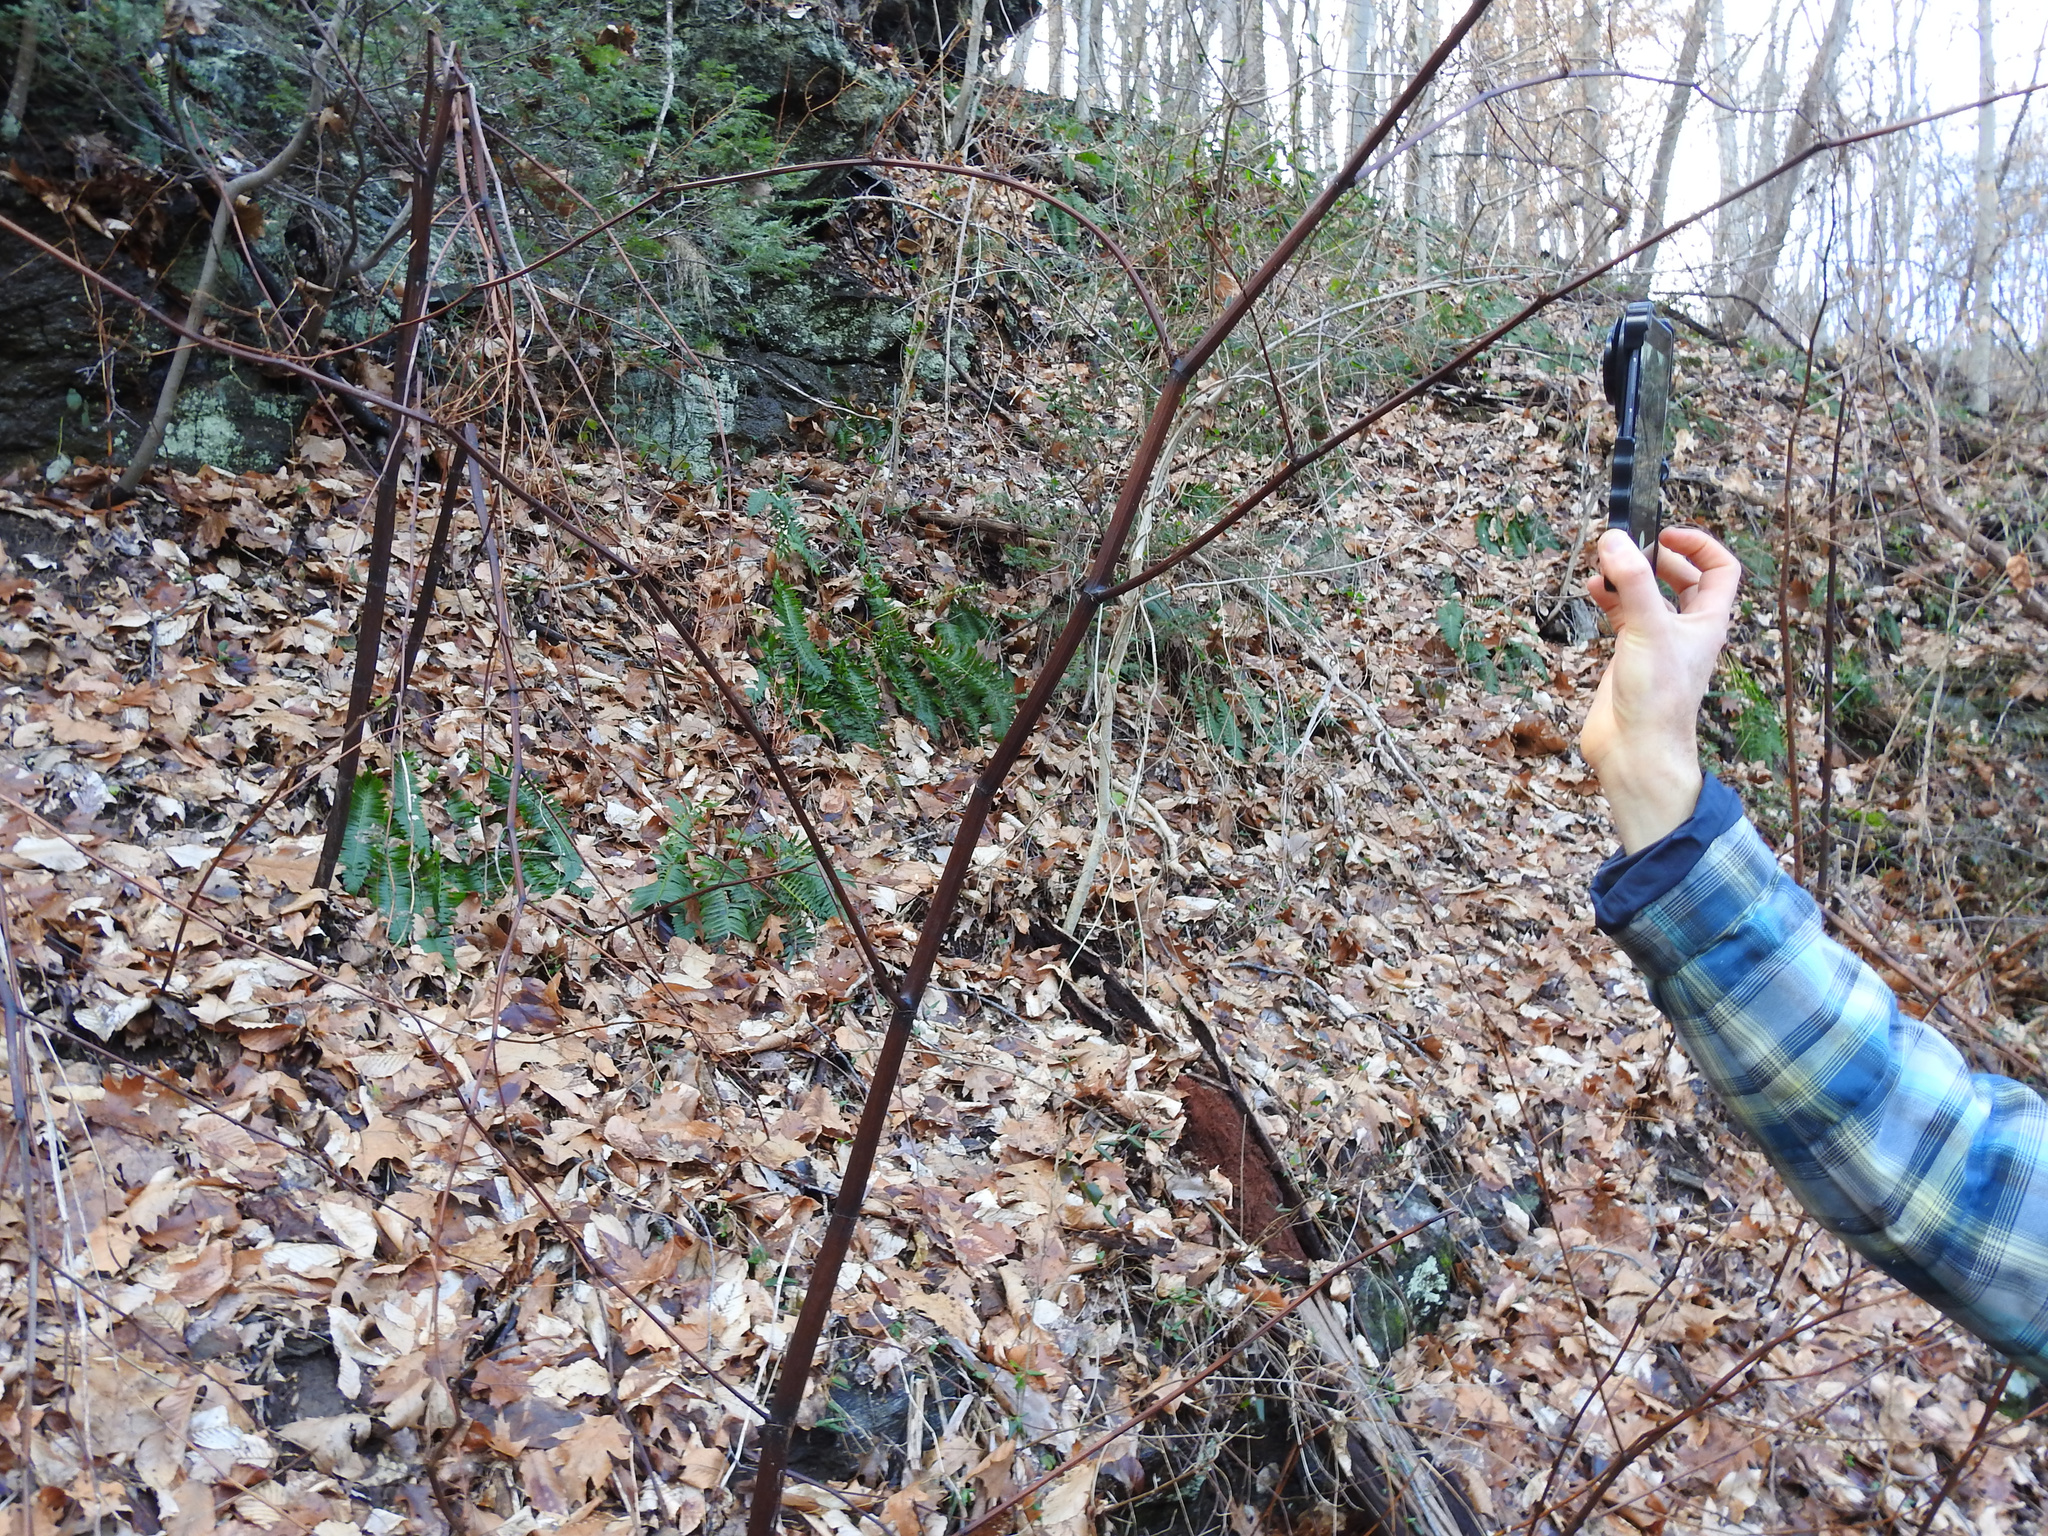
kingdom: Plantae
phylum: Tracheophyta
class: Magnoliopsida
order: Caryophyllales
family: Polygonaceae
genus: Reynoutria
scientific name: Reynoutria japonica
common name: Japanese knotweed
